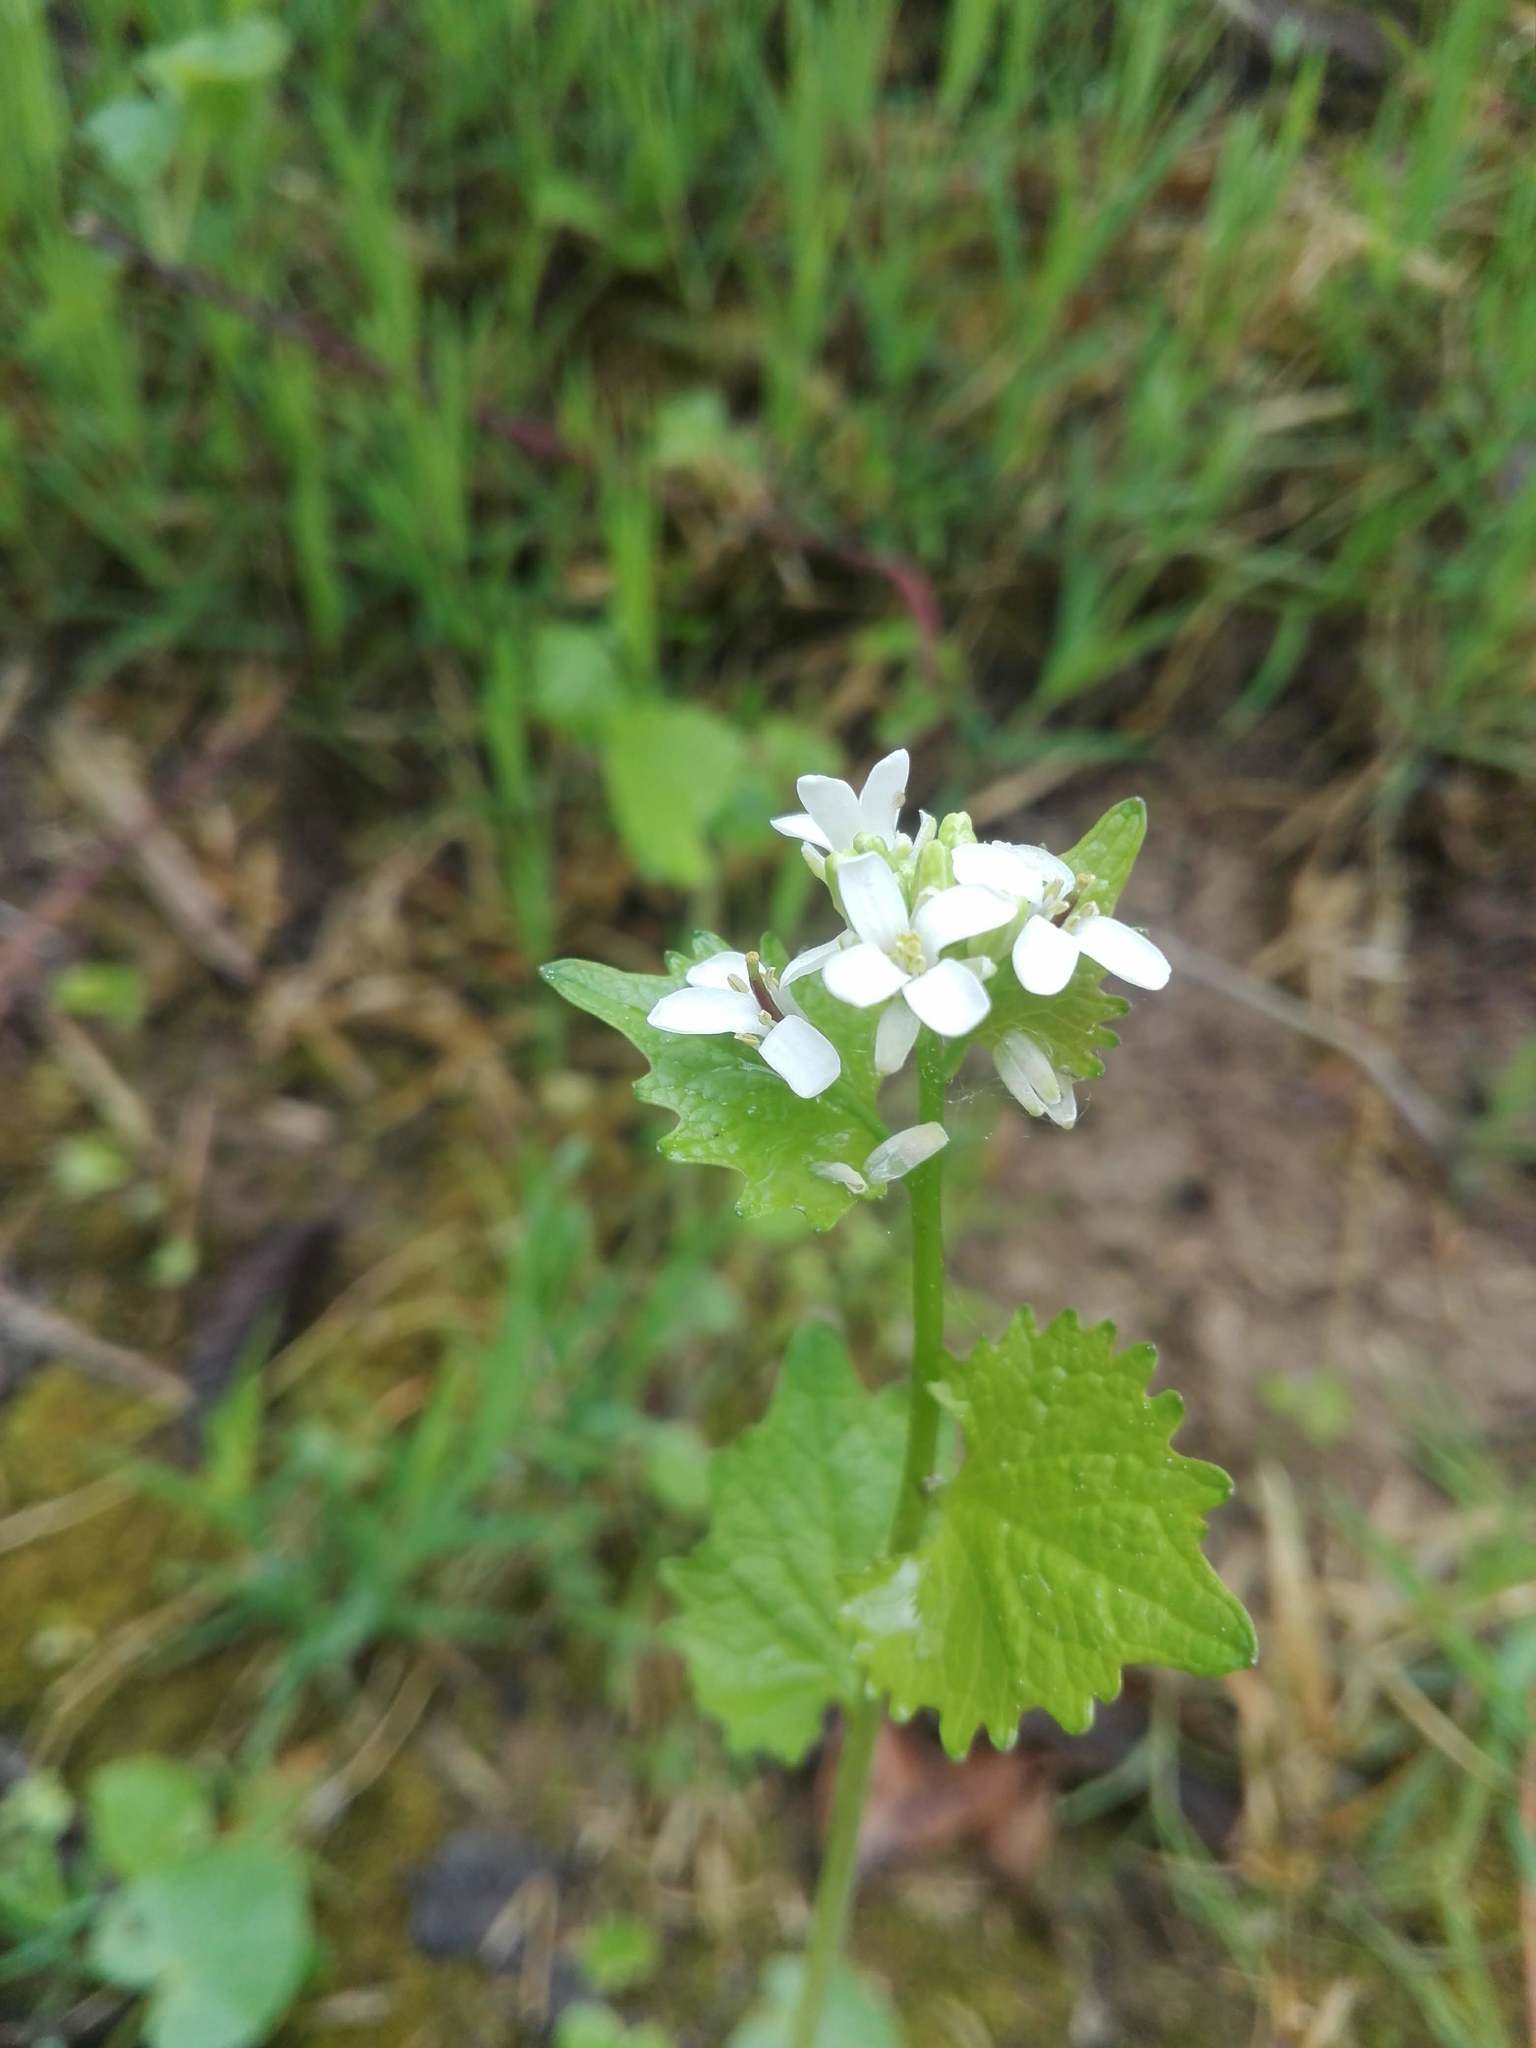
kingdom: Plantae
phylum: Tracheophyta
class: Magnoliopsida
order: Brassicales
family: Brassicaceae
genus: Alliaria
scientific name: Alliaria petiolata
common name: Garlic mustard
